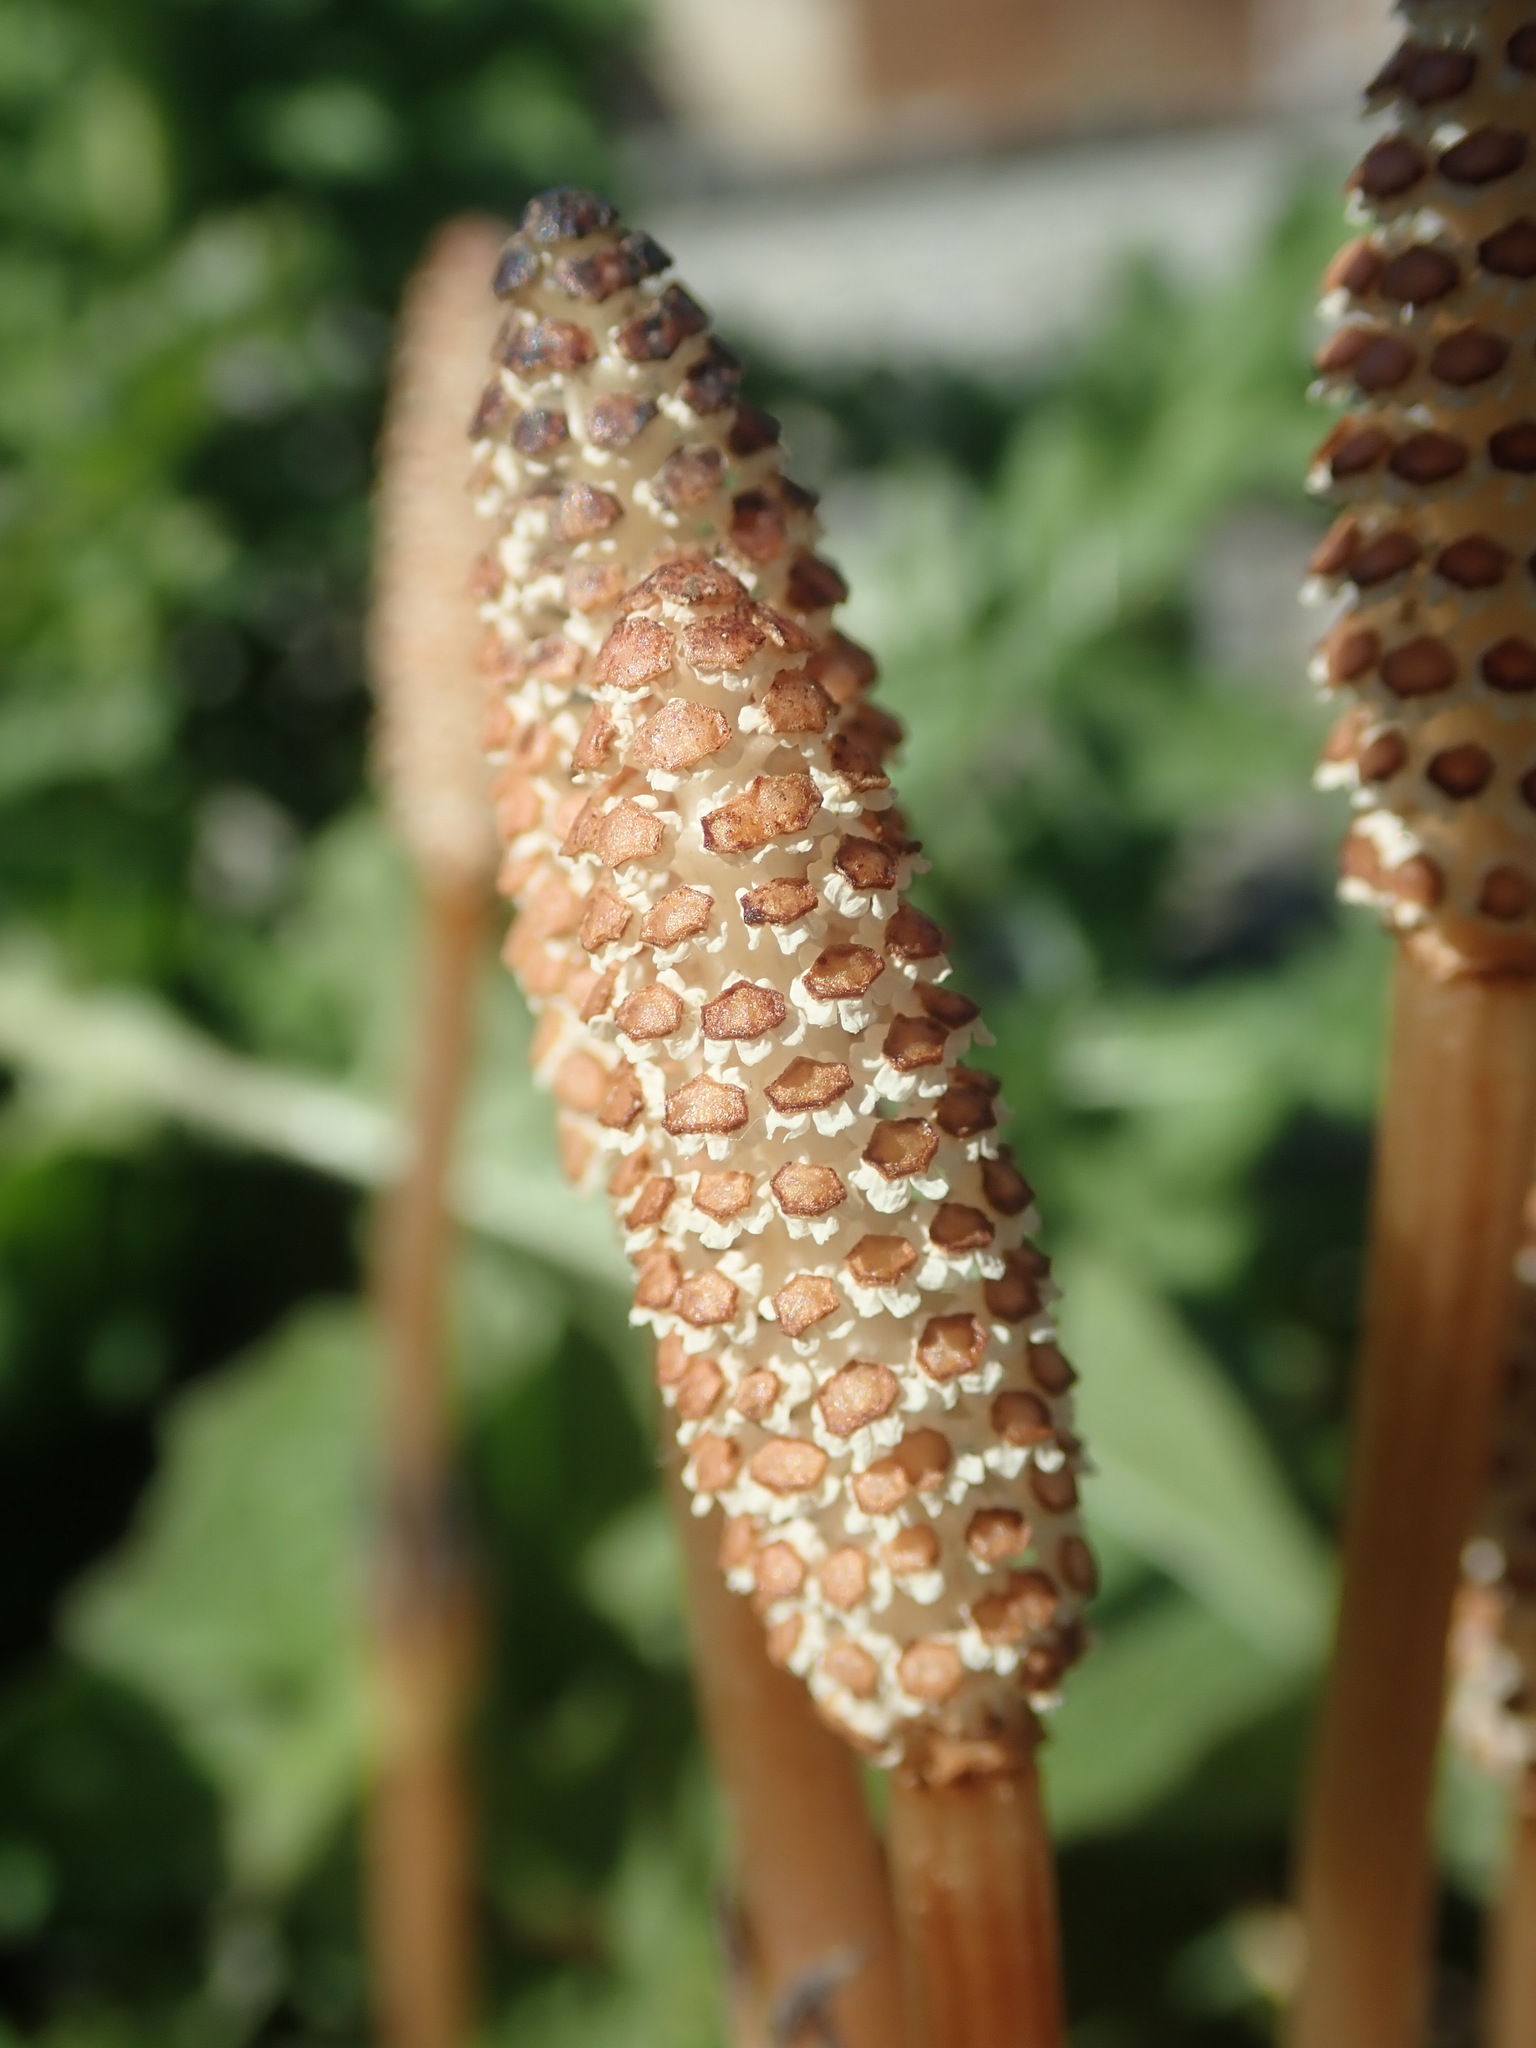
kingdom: Plantae
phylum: Tracheophyta
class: Polypodiopsida
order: Equisetales
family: Equisetaceae
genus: Equisetum
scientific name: Equisetum arvense
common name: Field horsetail
